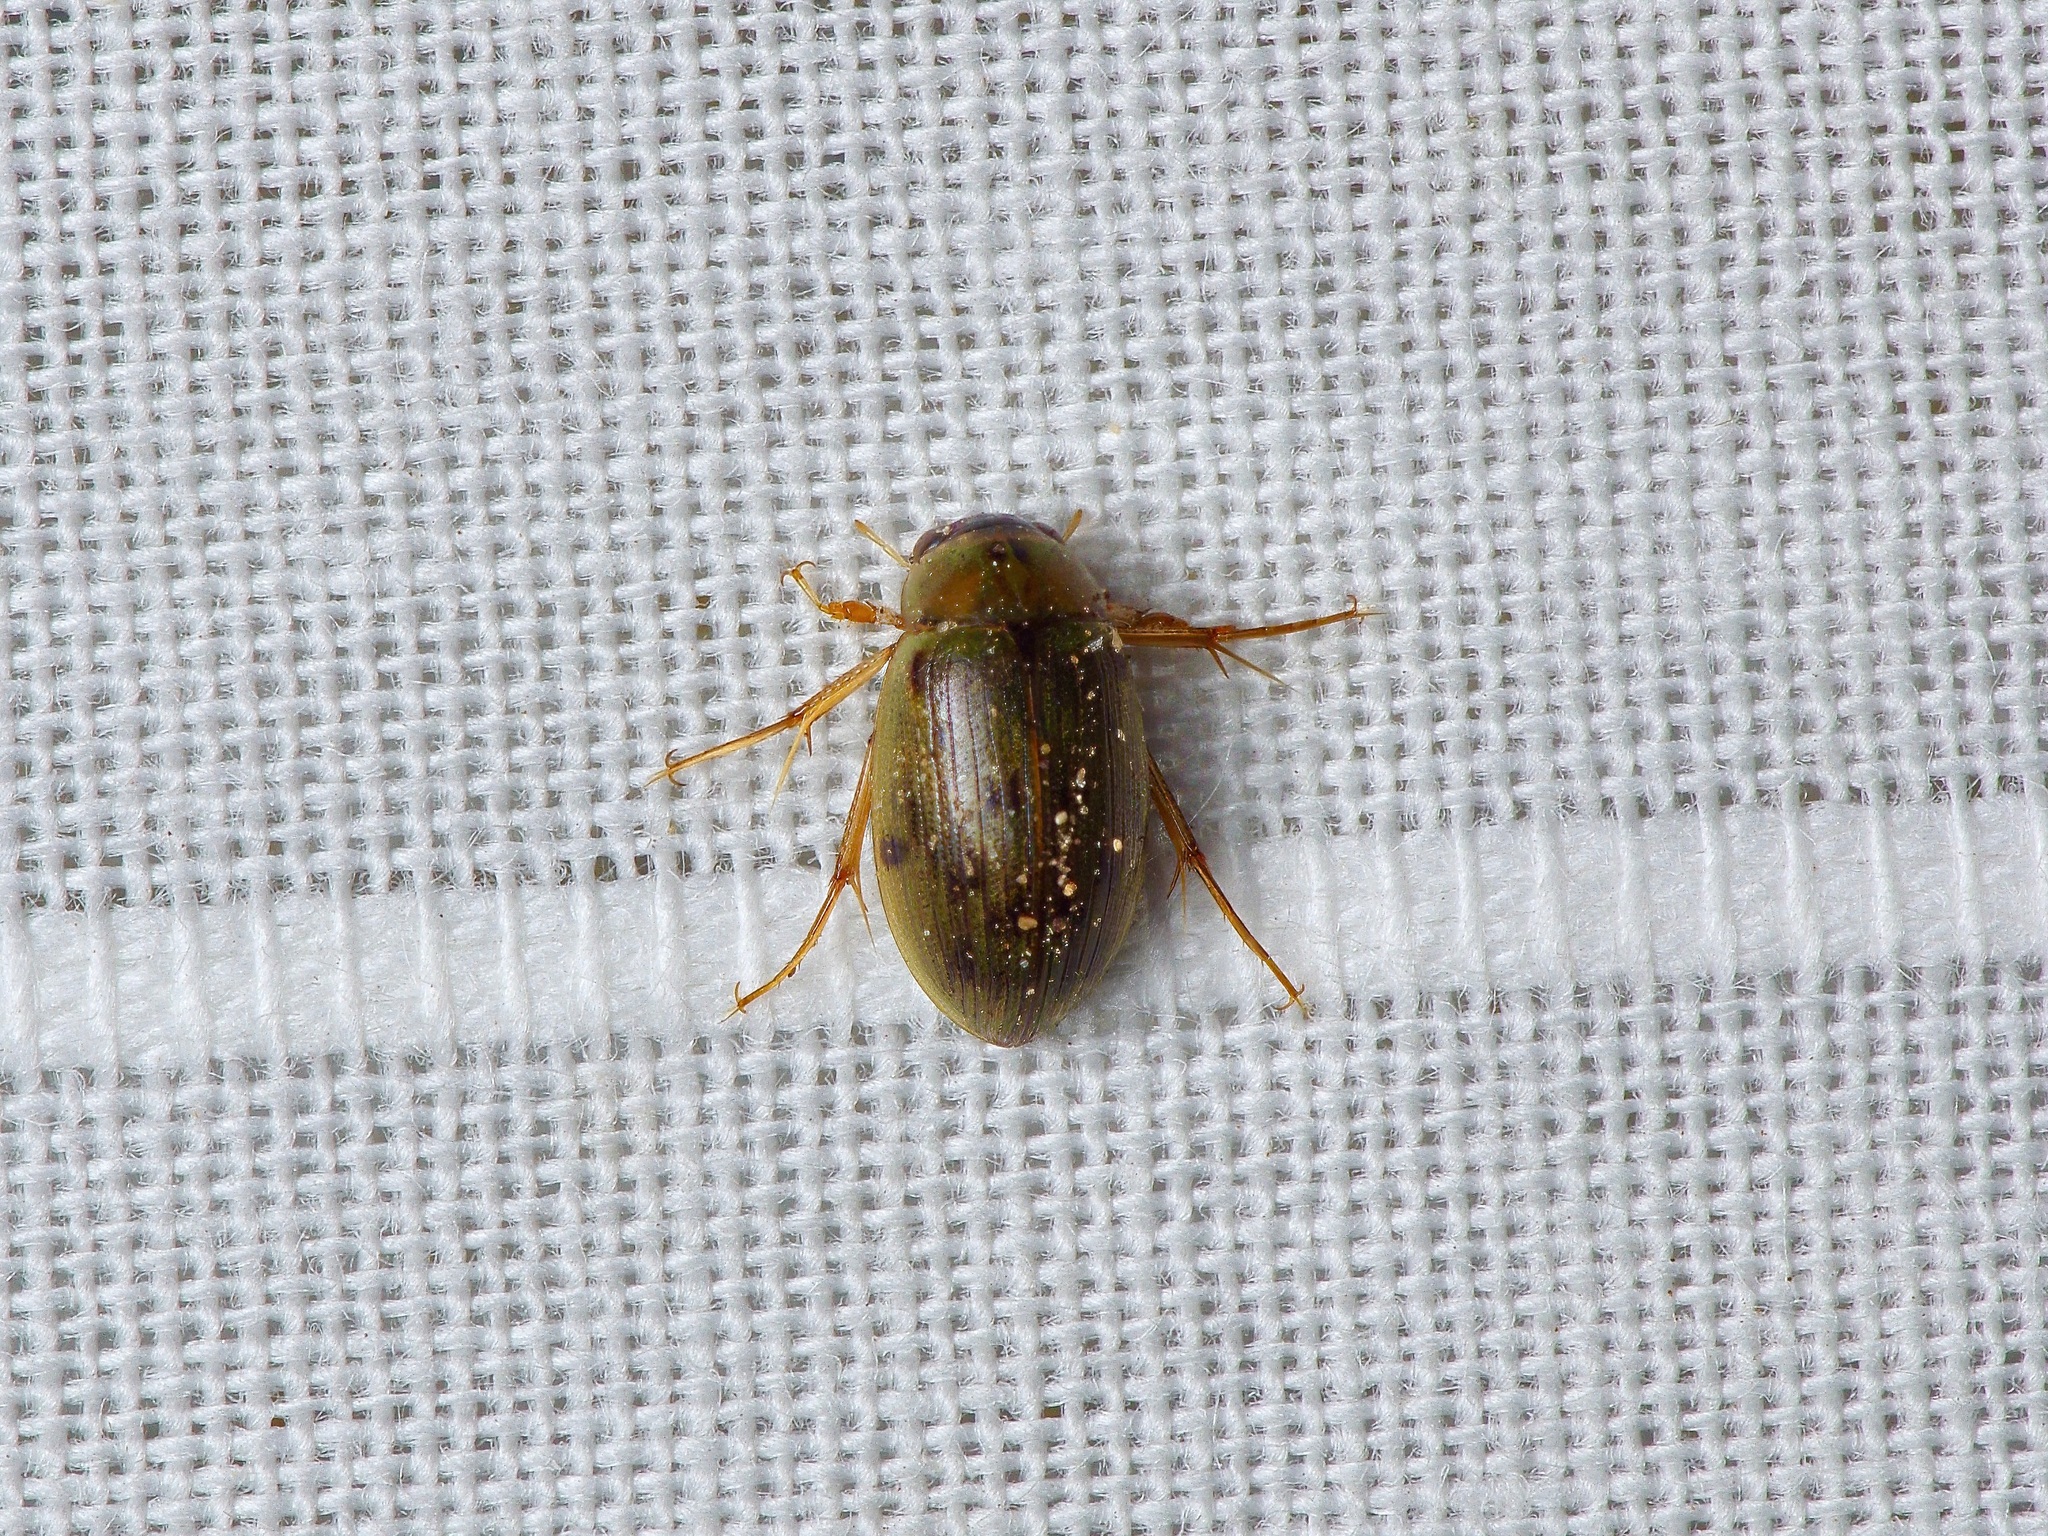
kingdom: Animalia
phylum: Arthropoda
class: Insecta
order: Coleoptera
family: Hydrophilidae
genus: Berosus
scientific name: Berosus
